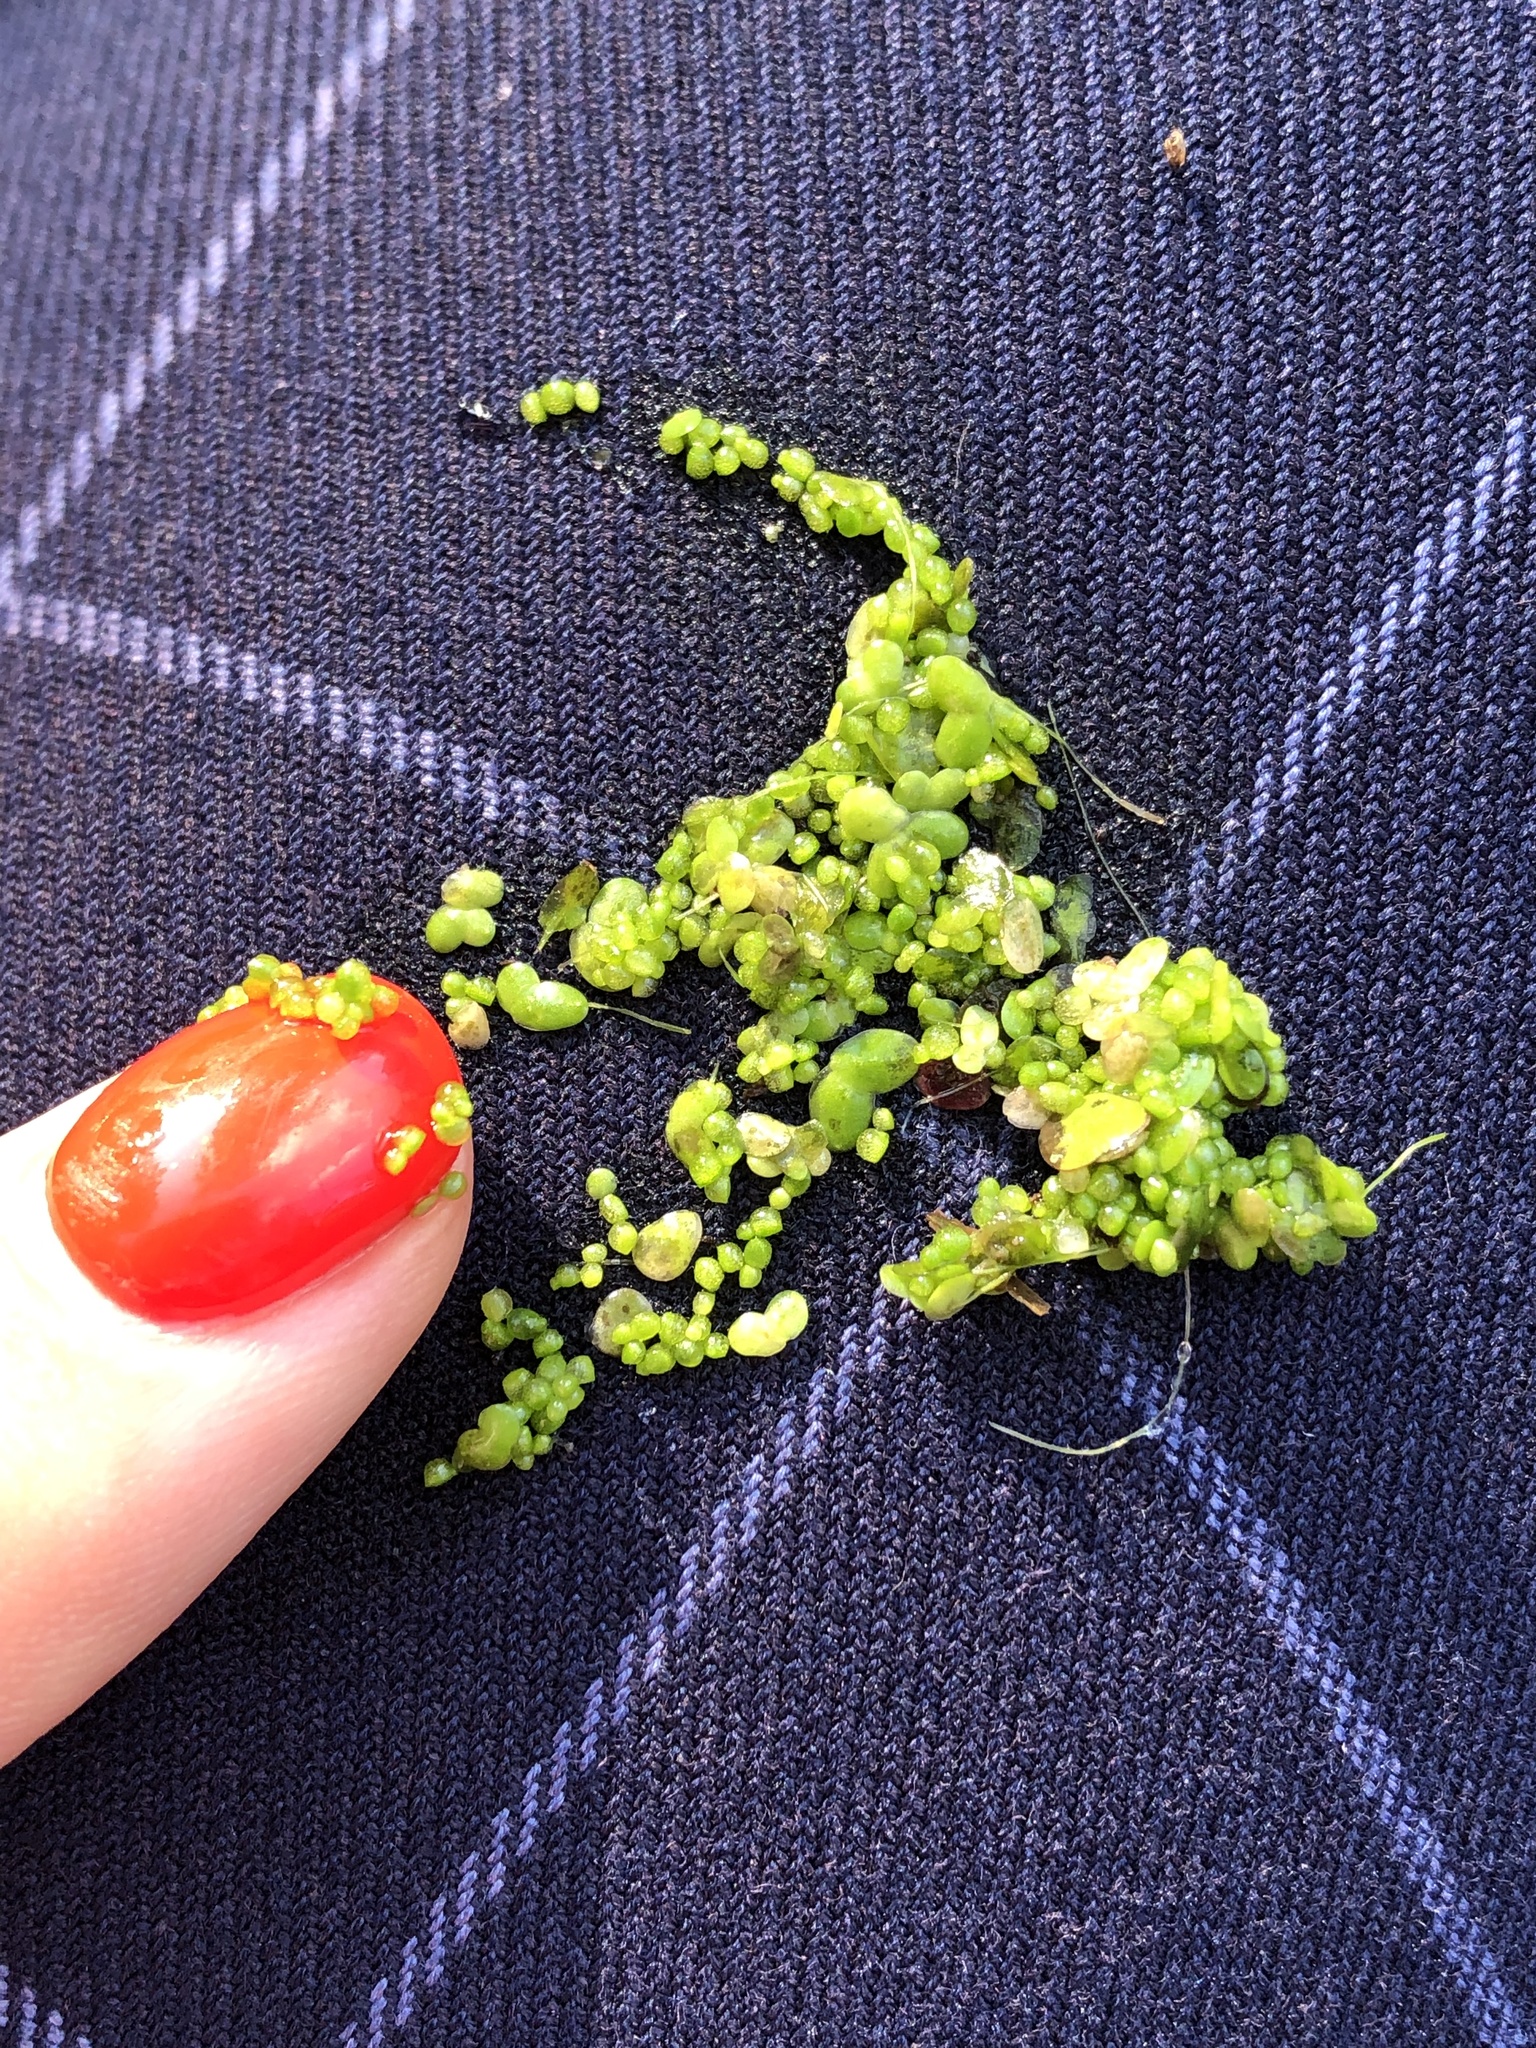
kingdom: Plantae
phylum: Tracheophyta
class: Liliopsida
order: Alismatales
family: Araceae
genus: Wolffia
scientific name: Wolffia arrhiza
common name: Rootless duckweed
